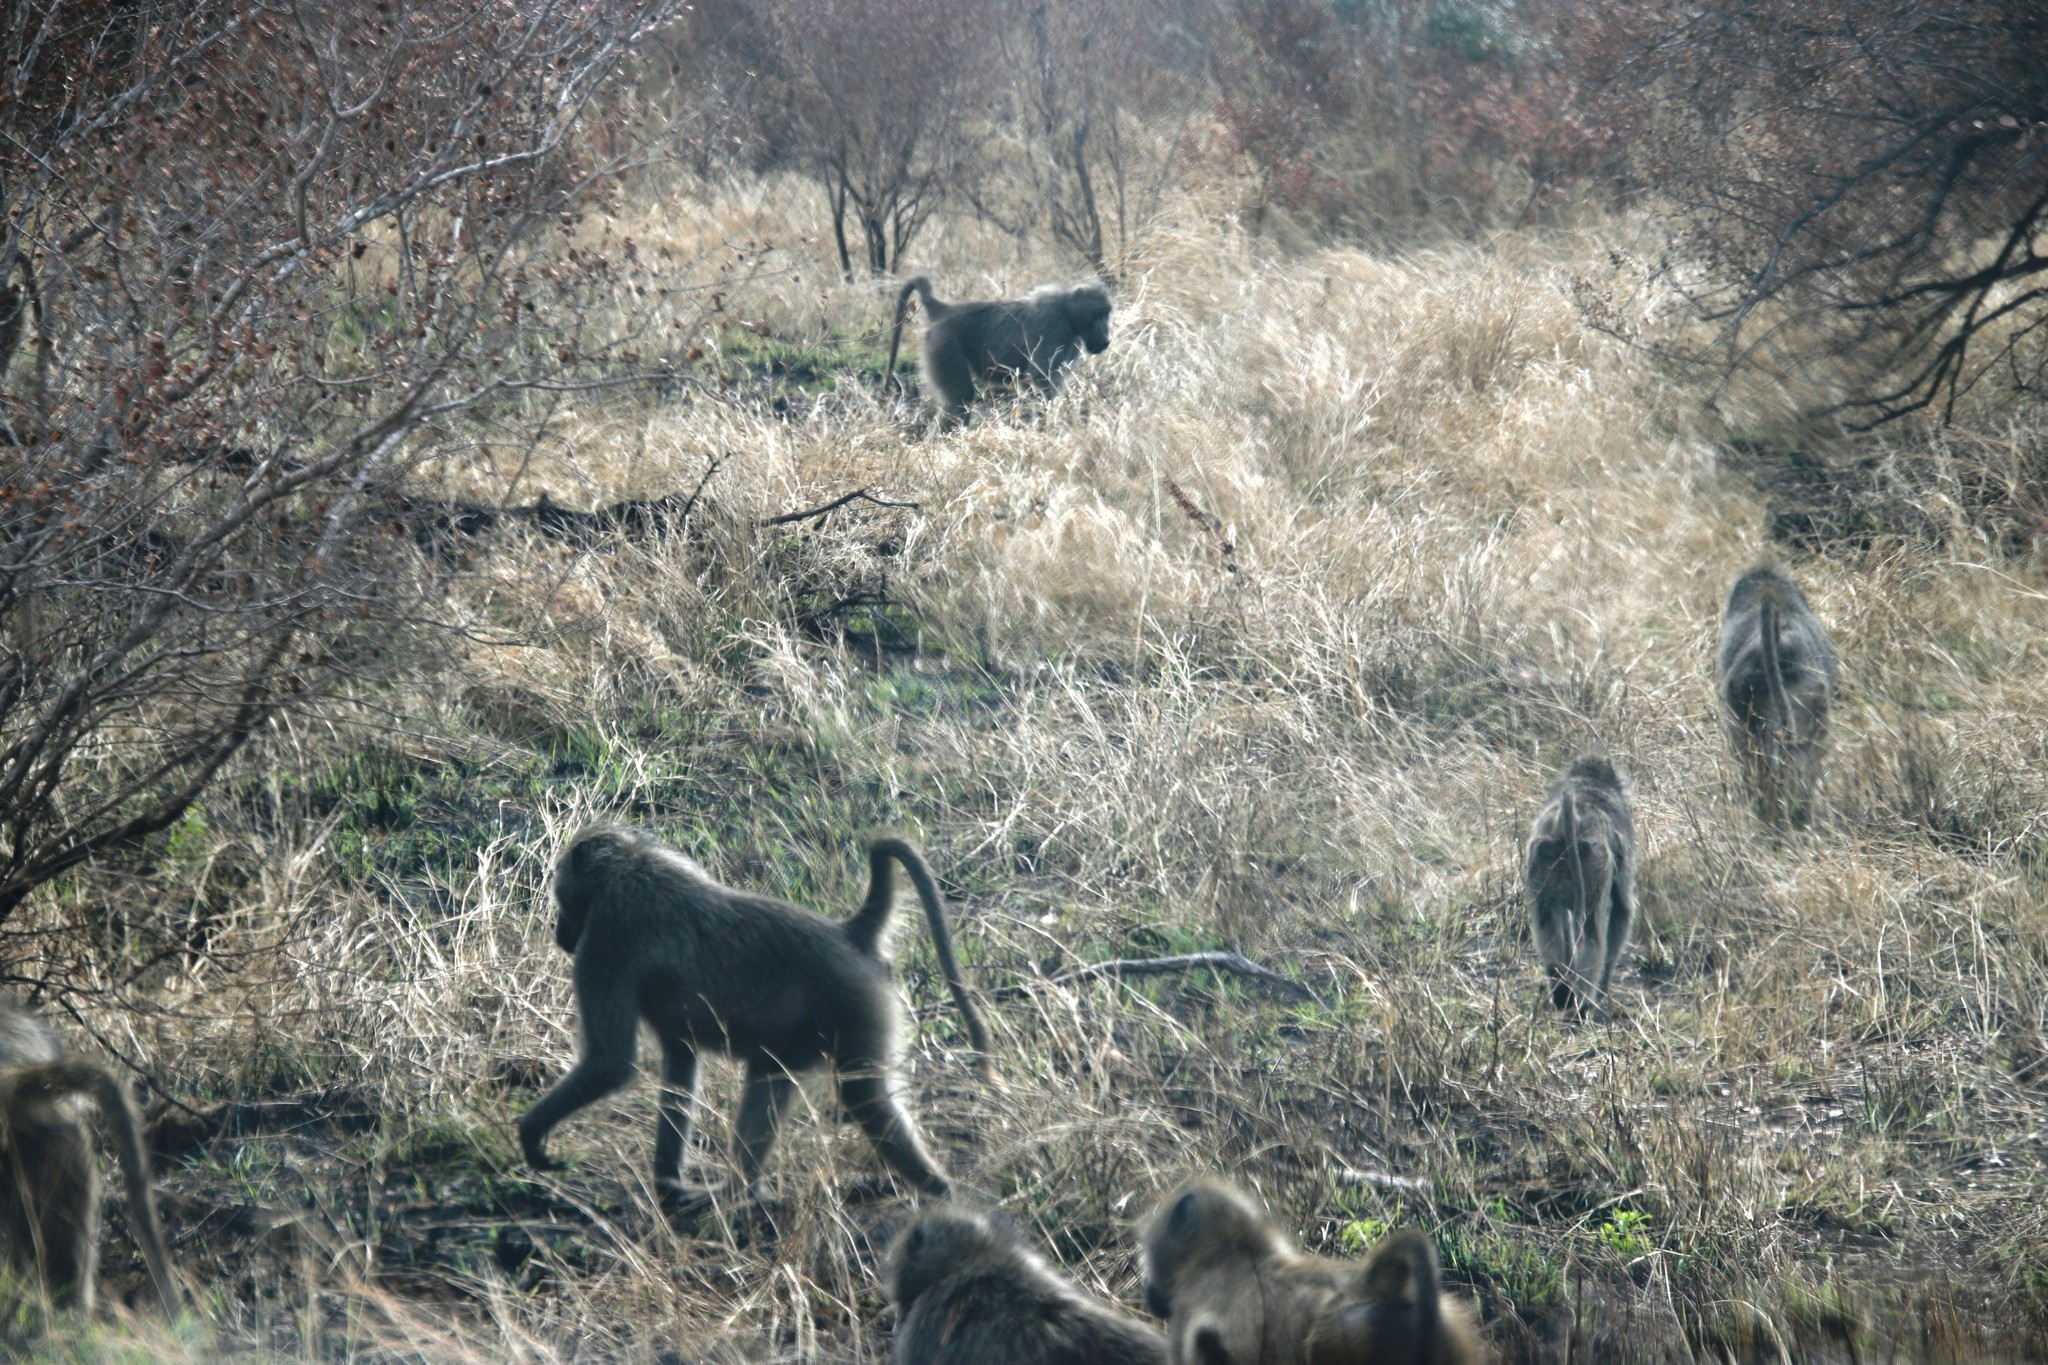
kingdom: Animalia
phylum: Chordata
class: Mammalia
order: Primates
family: Cercopithecidae
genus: Papio
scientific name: Papio ursinus
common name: Chacma baboon
